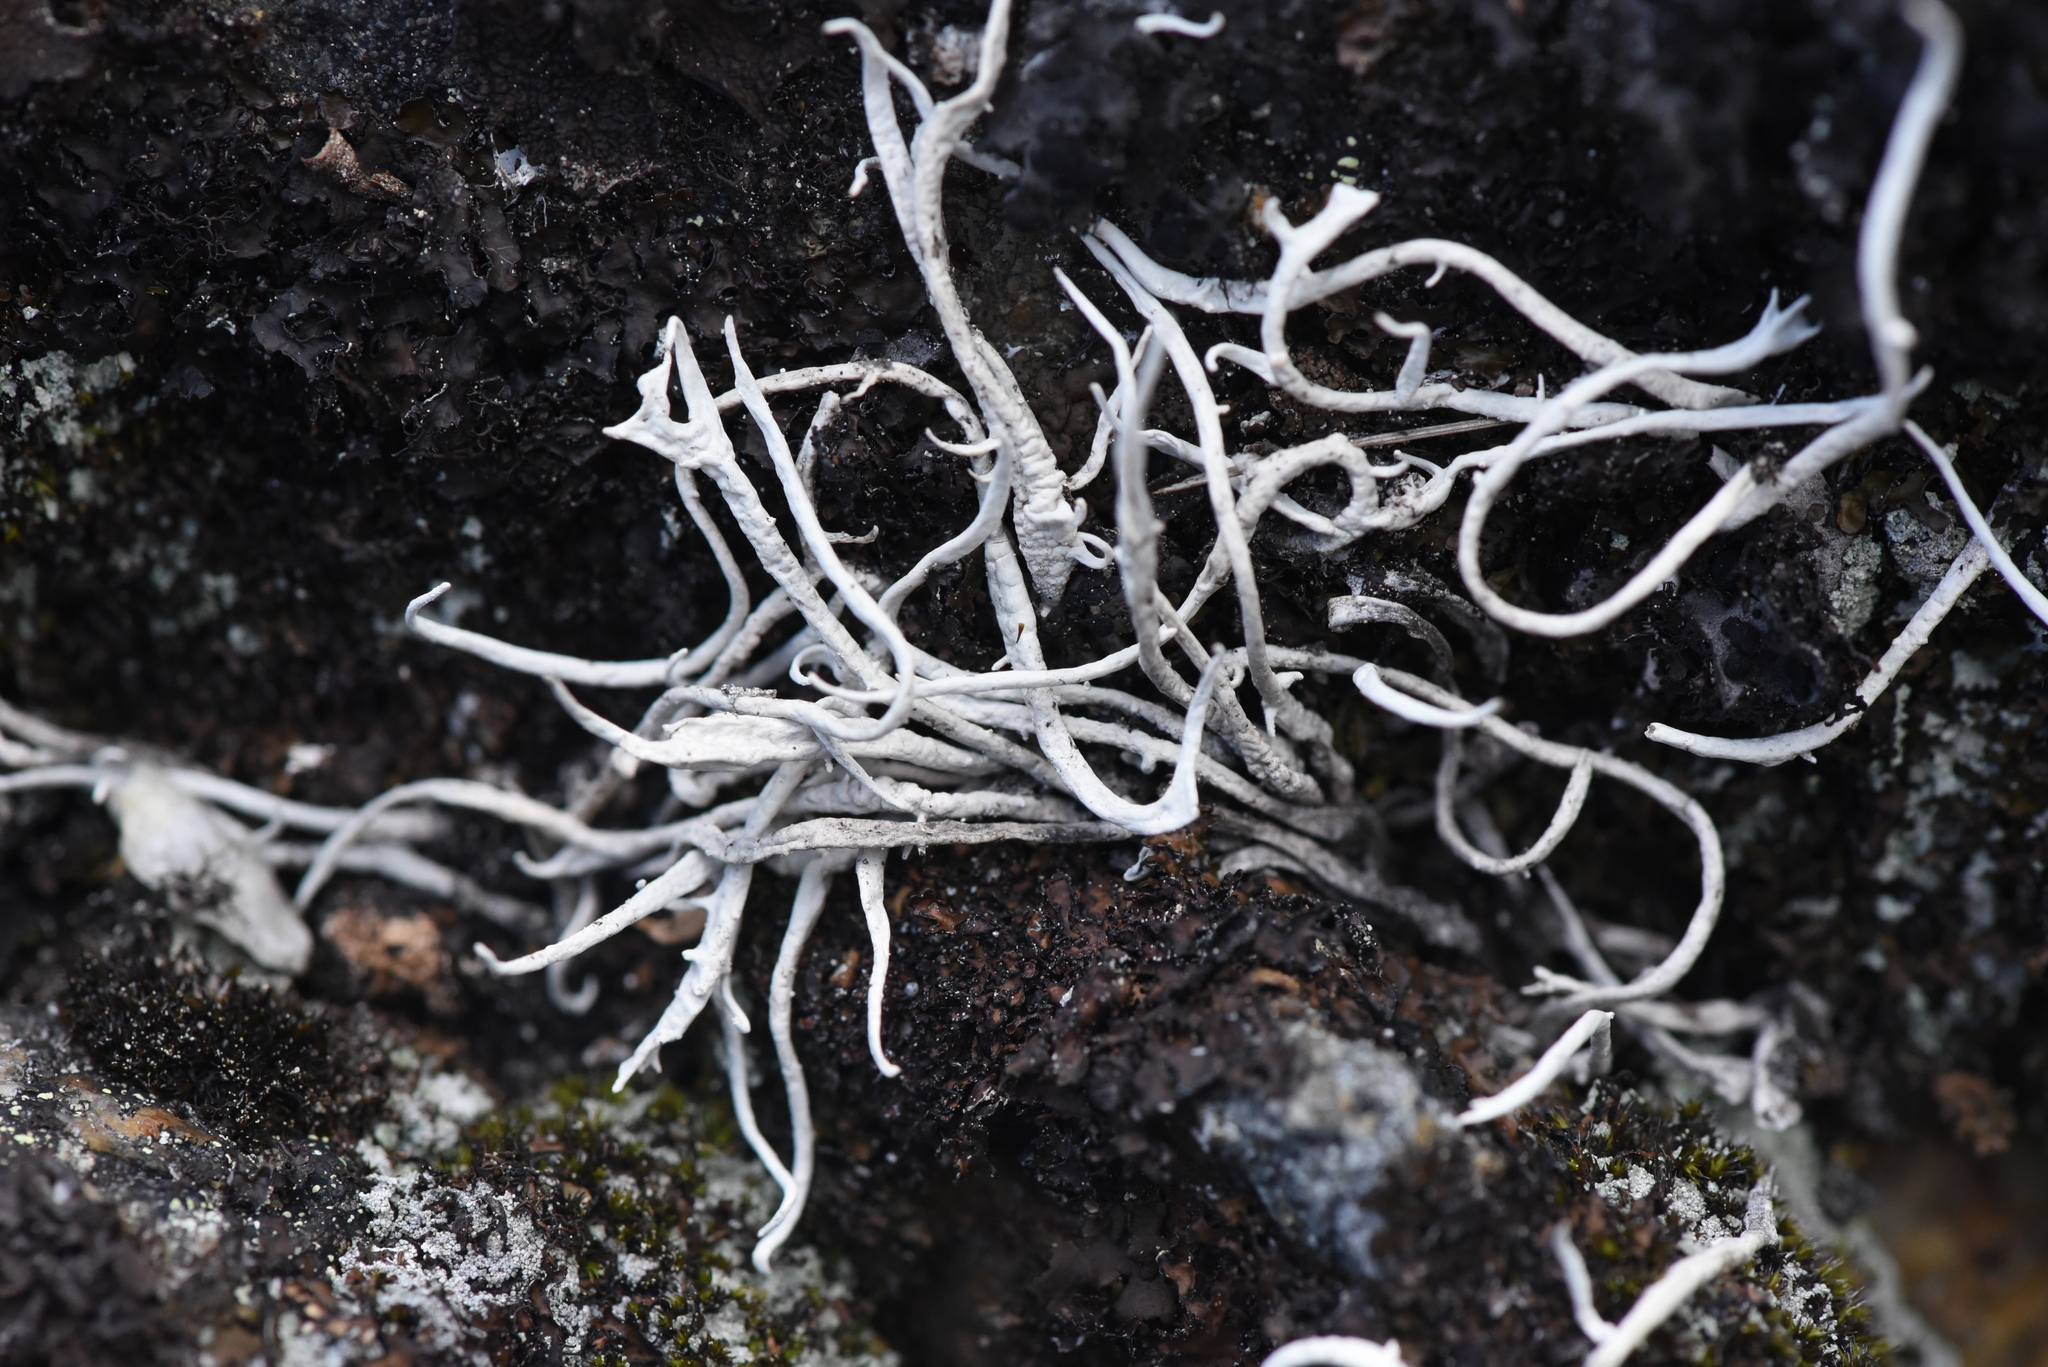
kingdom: Fungi
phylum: Ascomycota
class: Lecanoromycetes
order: Pertusariales
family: Icmadophilaceae
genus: Thamnolia
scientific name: Thamnolia vermicularis
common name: Whiteworm lichen
